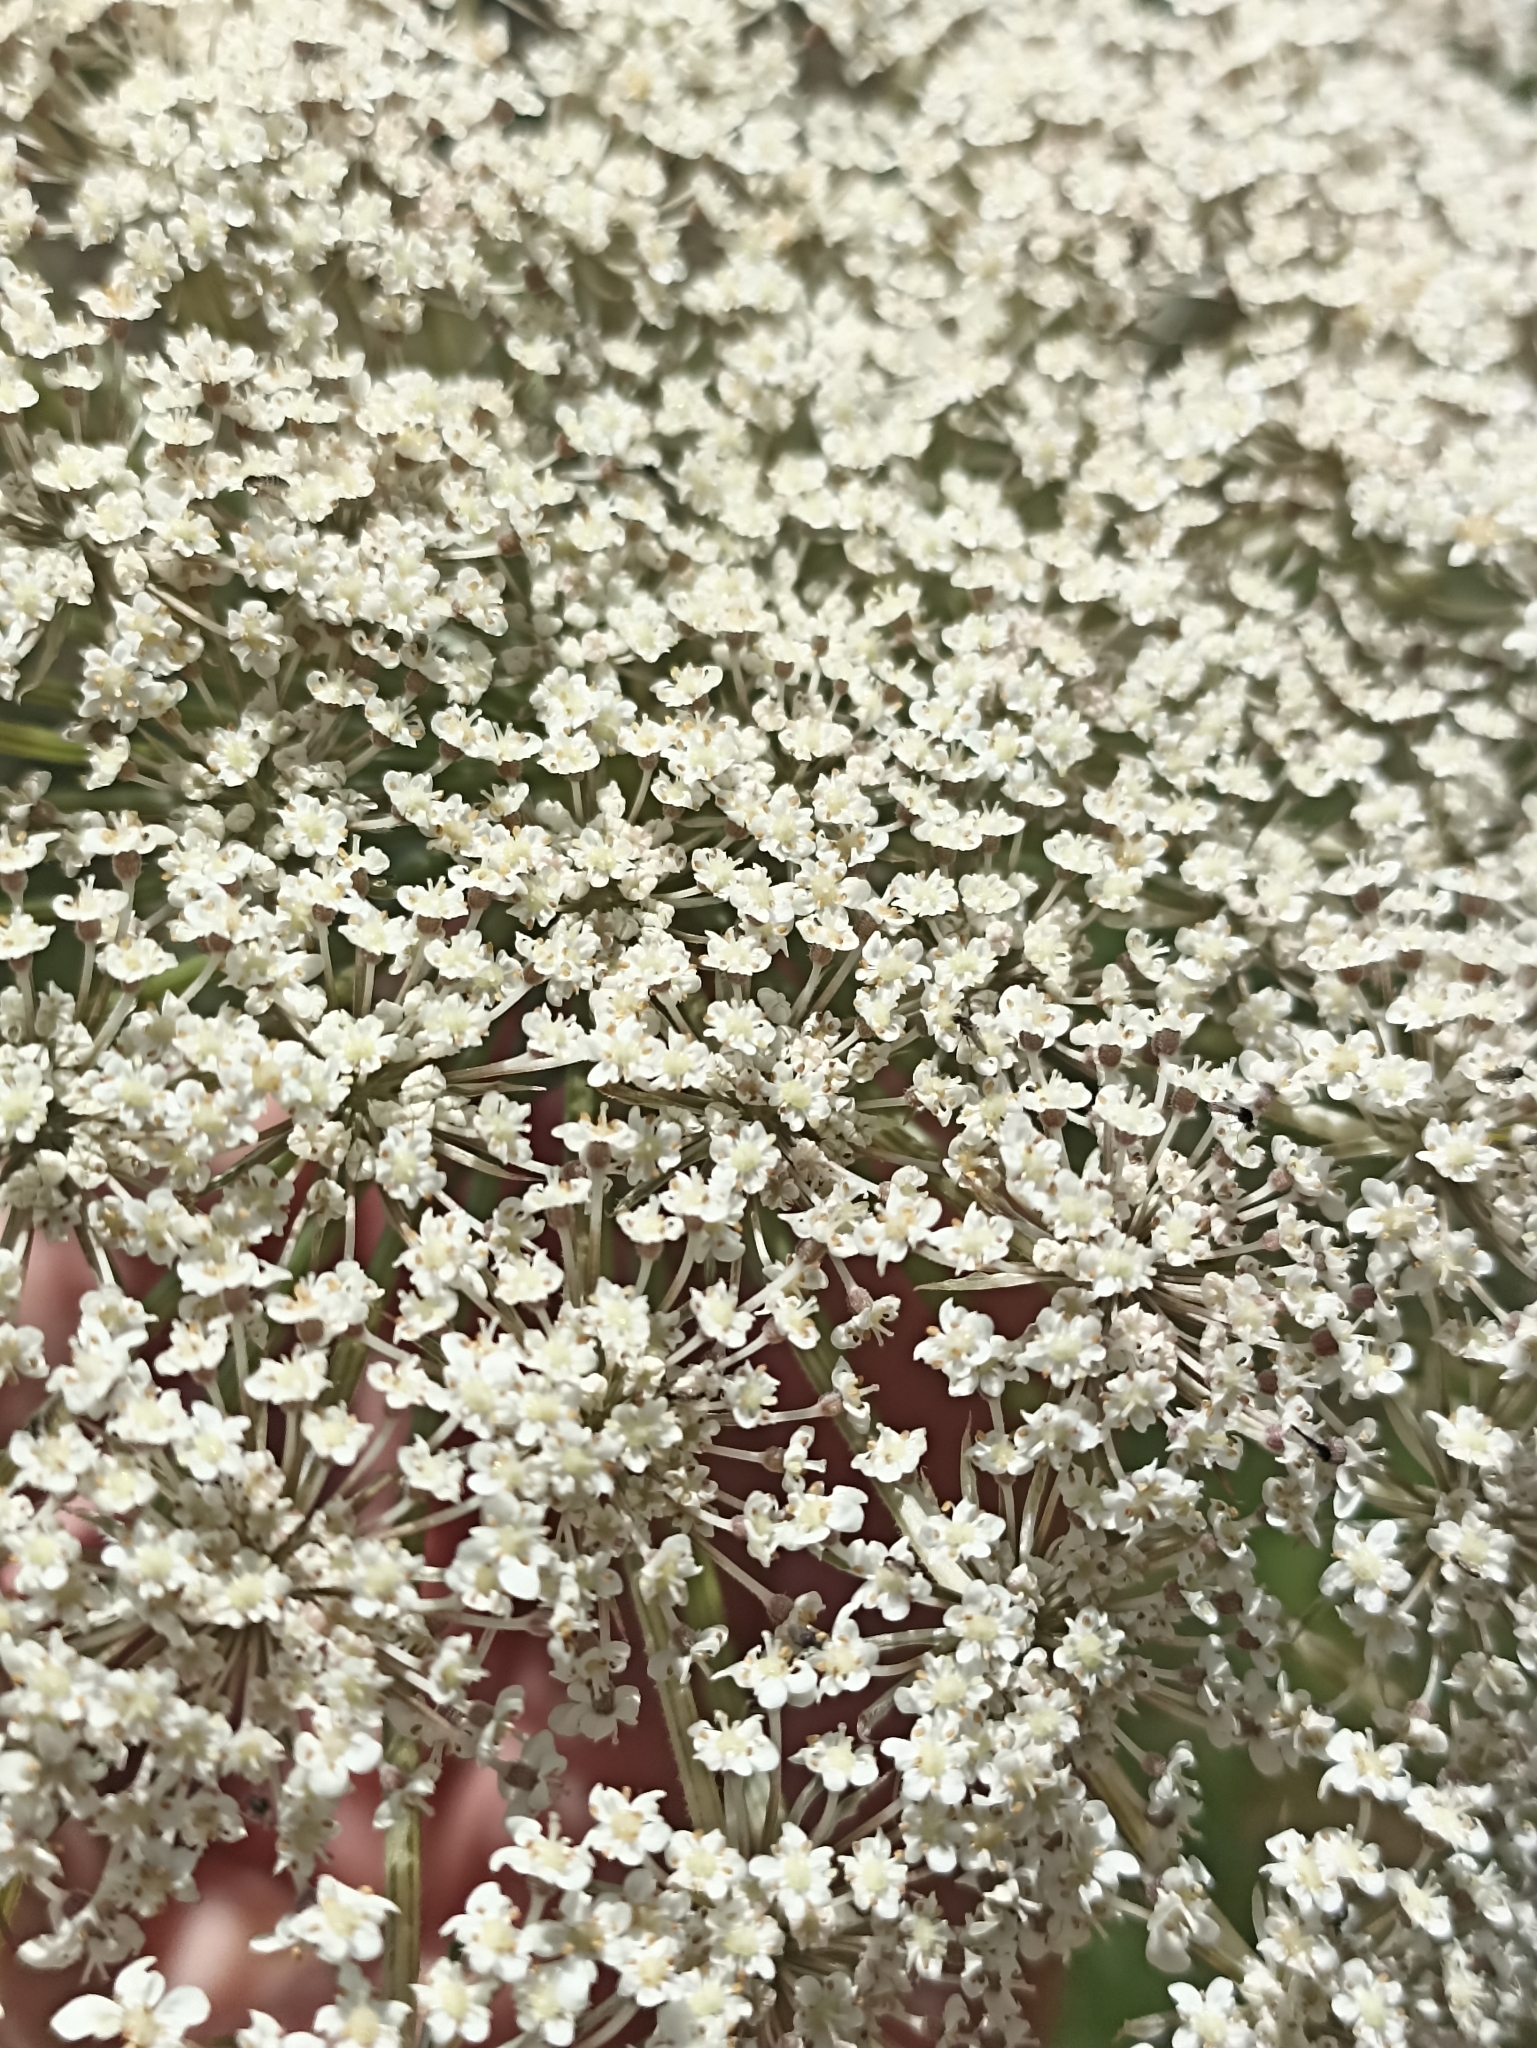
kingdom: Plantae
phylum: Tracheophyta
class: Magnoliopsida
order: Apiales
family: Apiaceae
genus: Daucus
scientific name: Daucus carota
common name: Wild carrot
